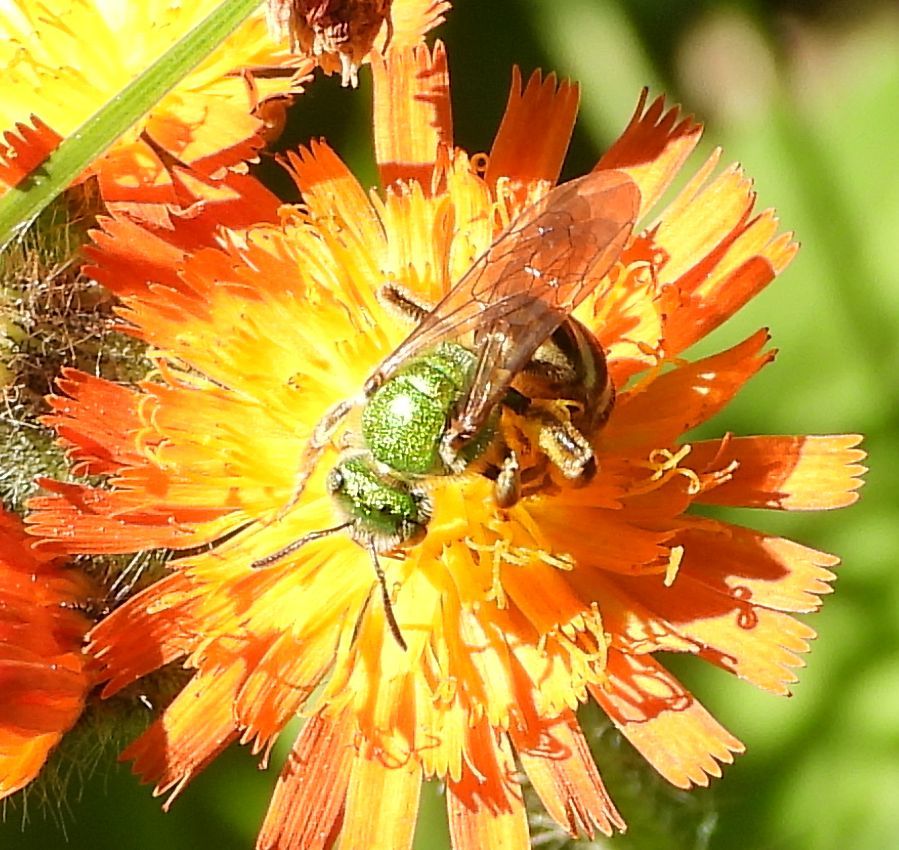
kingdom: Animalia
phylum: Arthropoda
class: Insecta
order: Hymenoptera
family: Halictidae
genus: Agapostemon
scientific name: Agapostemon virescens
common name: Bicolored striped sweat bee
